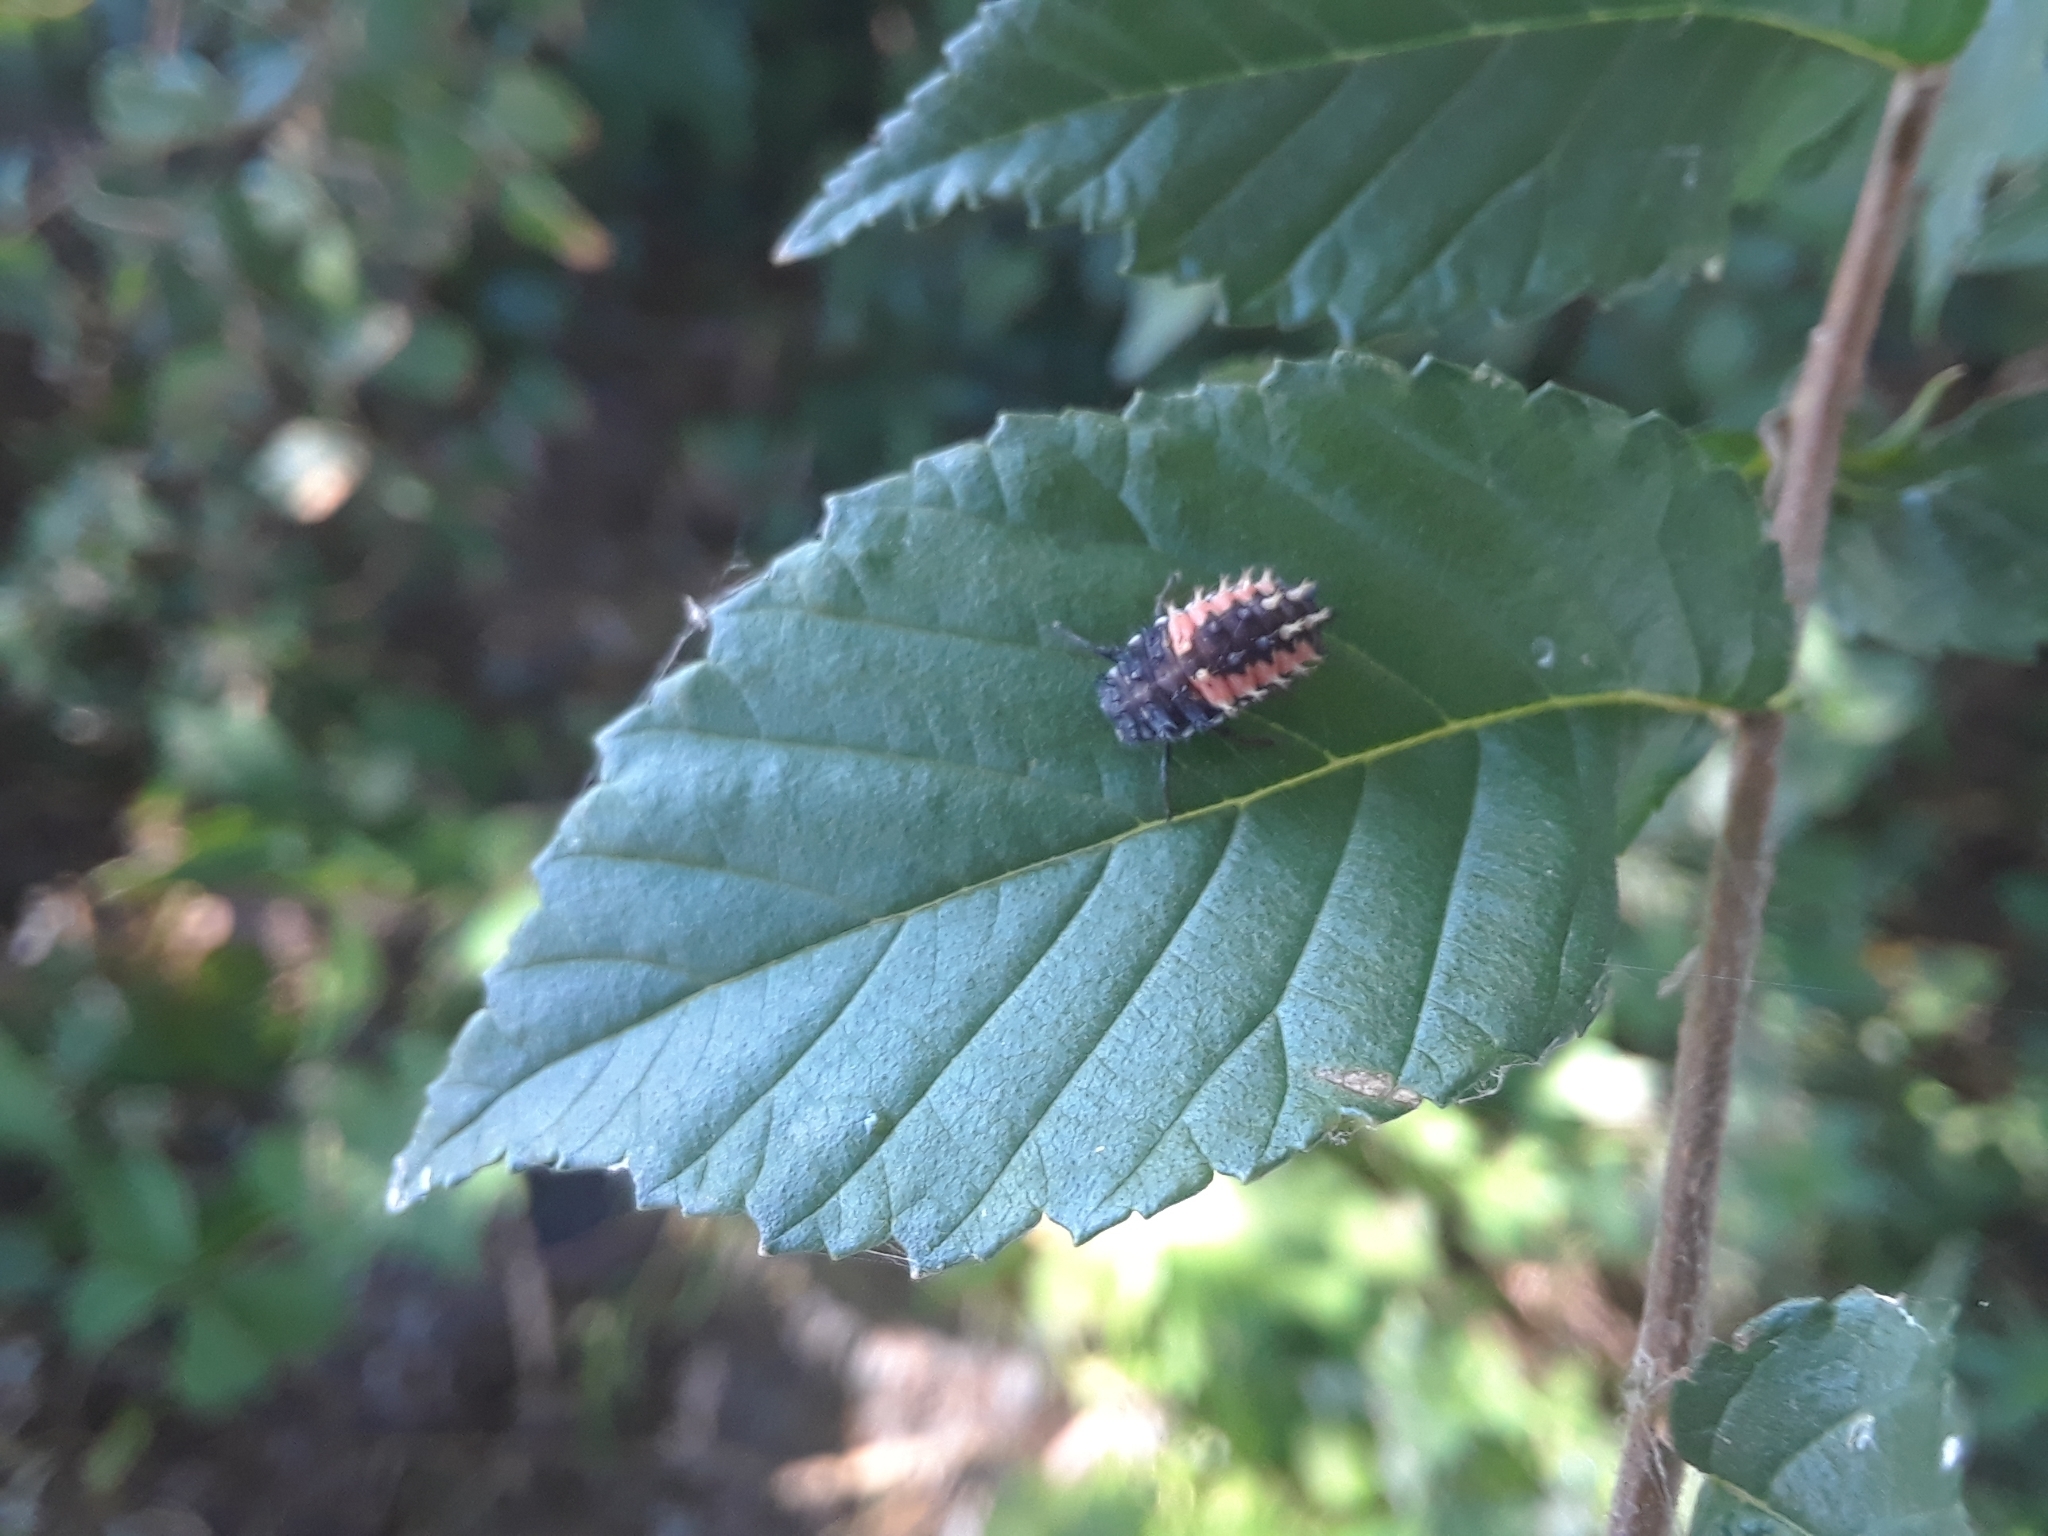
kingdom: Animalia
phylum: Arthropoda
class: Insecta
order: Coleoptera
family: Coccinellidae
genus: Harmonia
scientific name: Harmonia axyridis
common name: Harlequin ladybird
